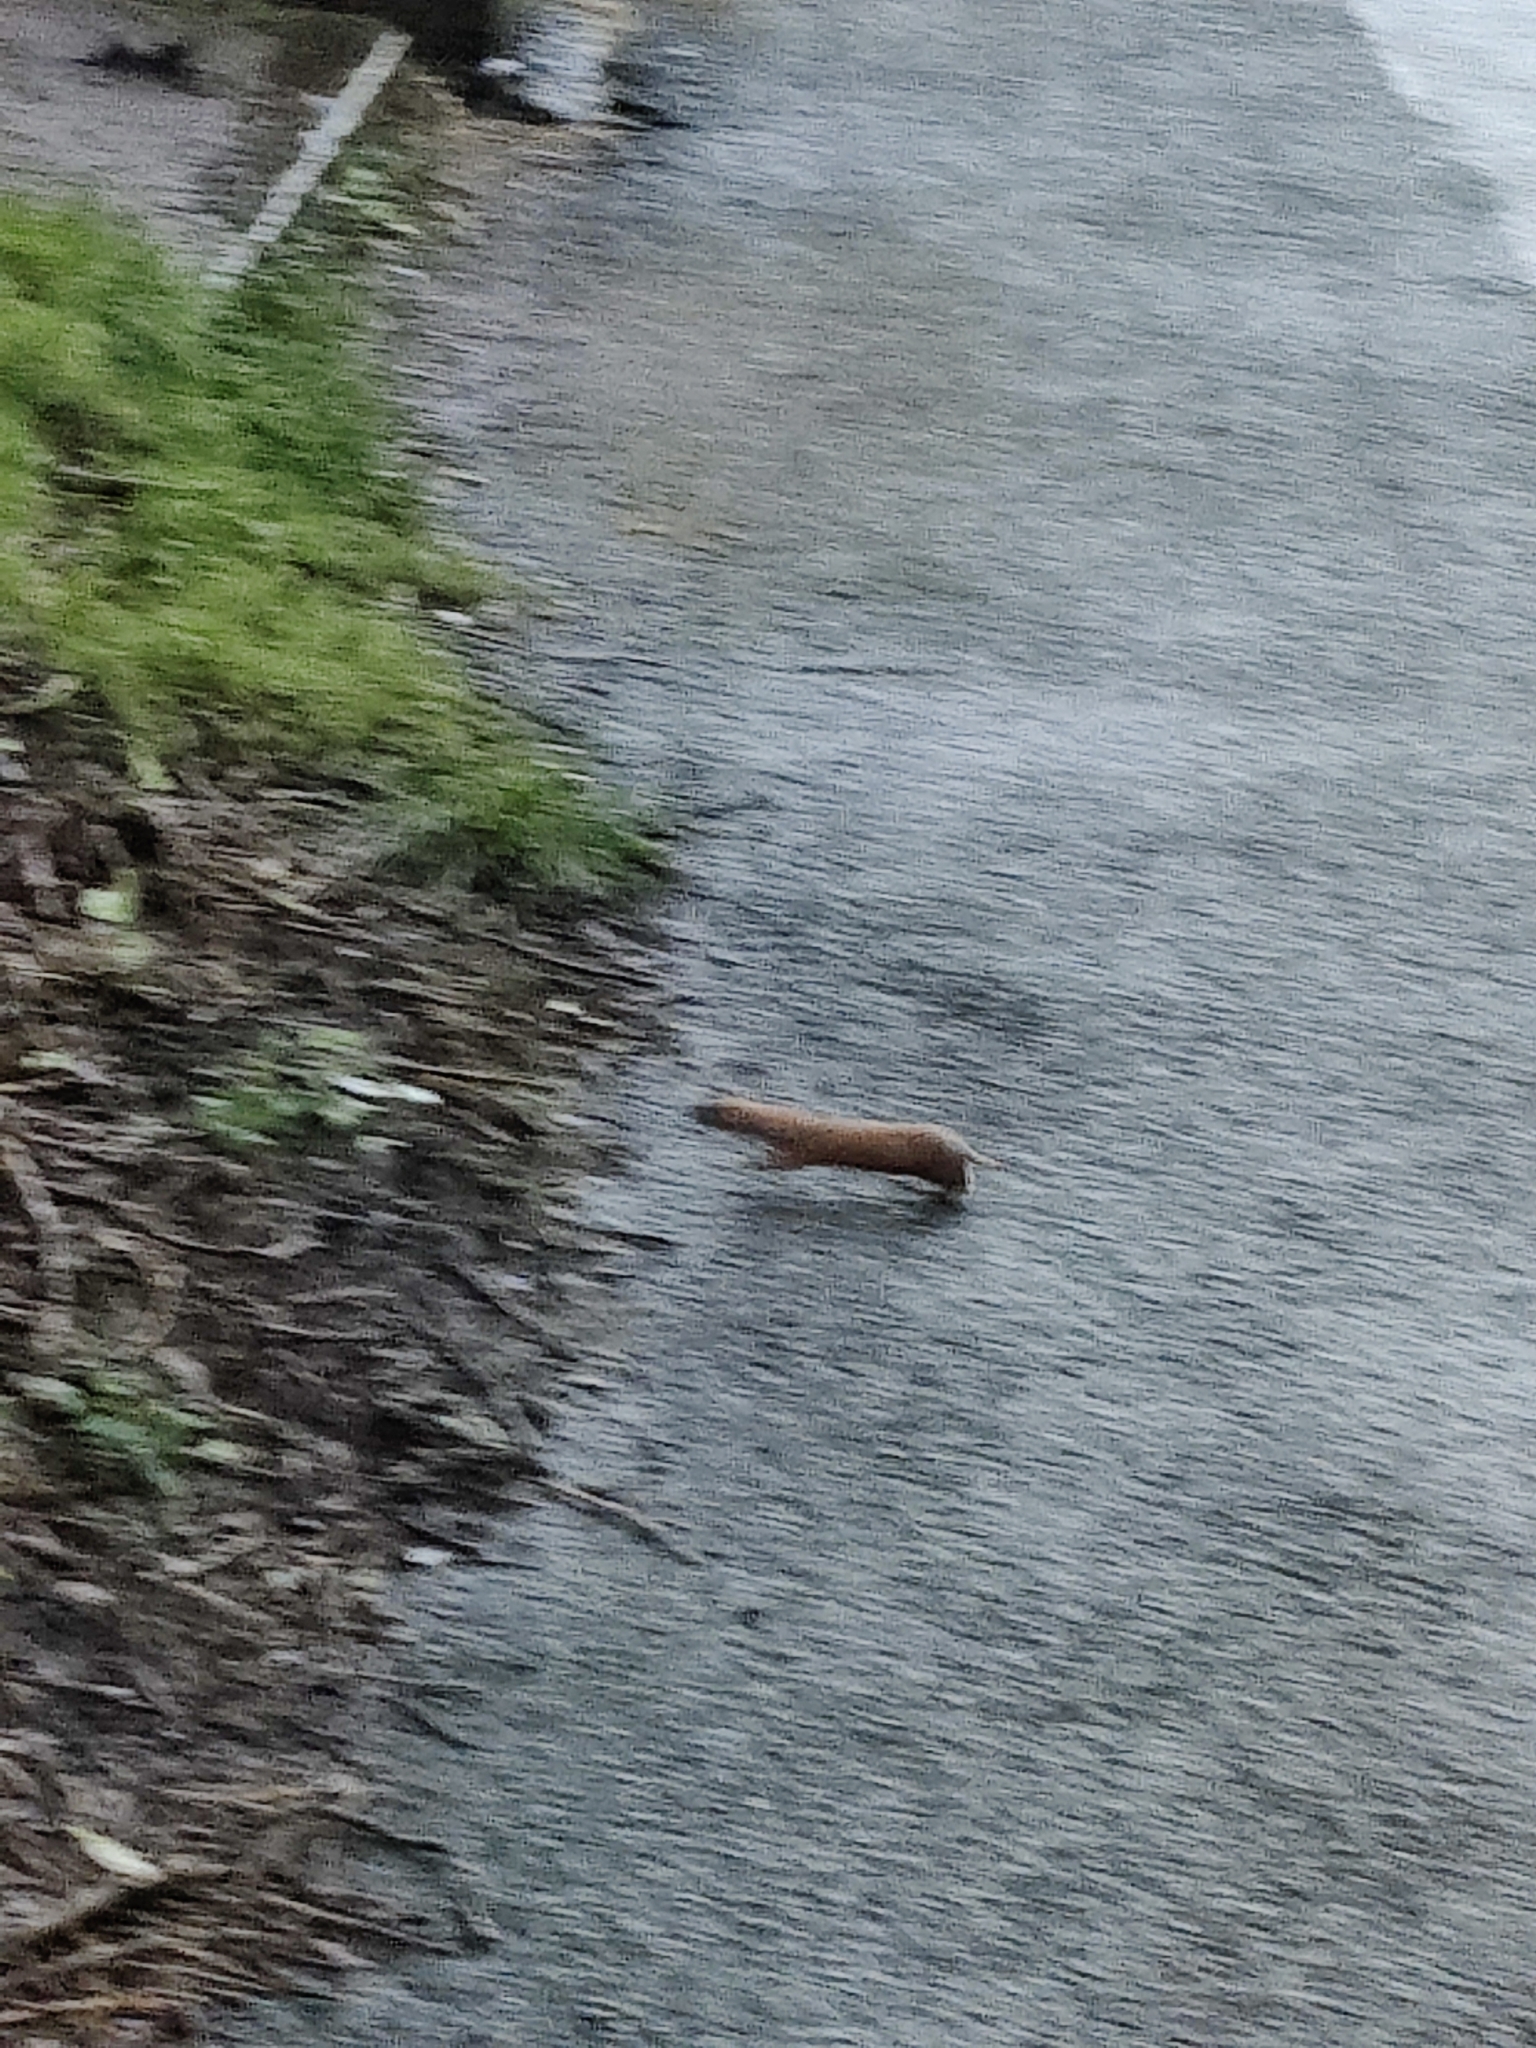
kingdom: Animalia
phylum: Chordata
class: Mammalia
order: Carnivora
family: Mustelidae
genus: Mustela
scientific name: Mustela nivalis
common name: Least weasel
